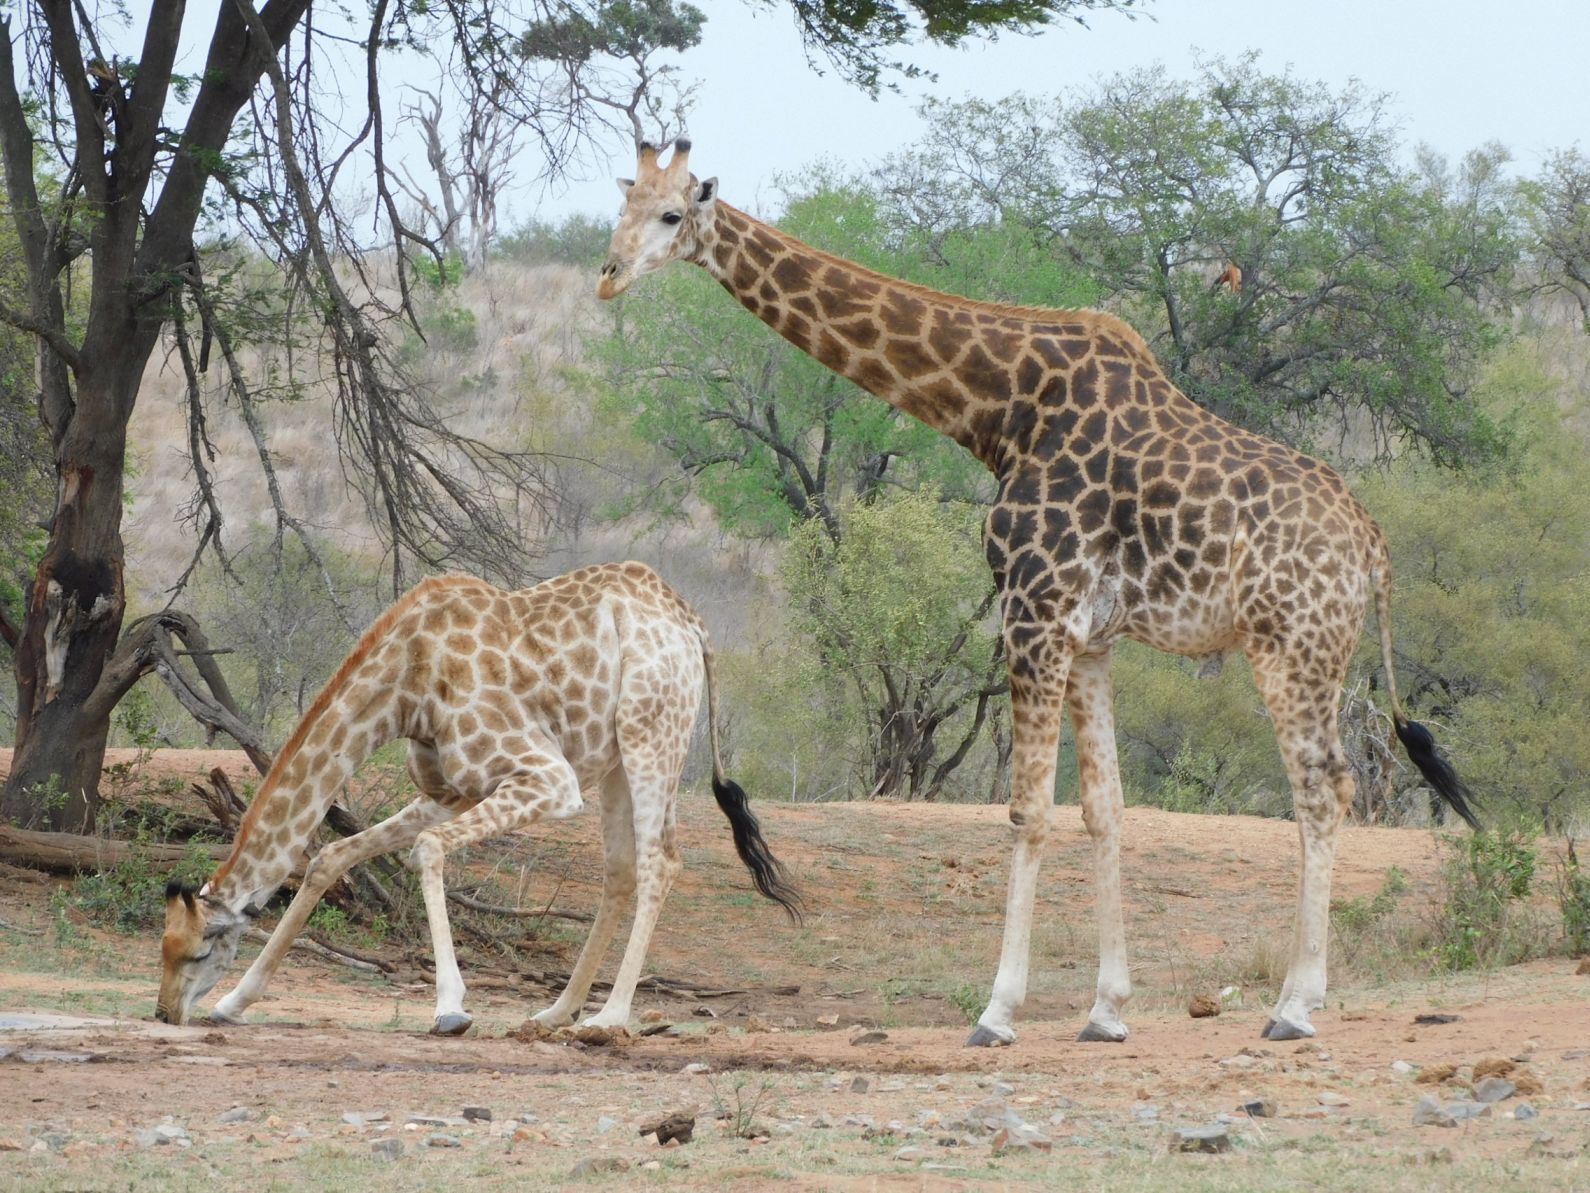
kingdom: Animalia
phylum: Chordata
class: Mammalia
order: Artiodactyla
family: Giraffidae
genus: Giraffa
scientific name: Giraffa giraffa
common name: Southern giraffe
